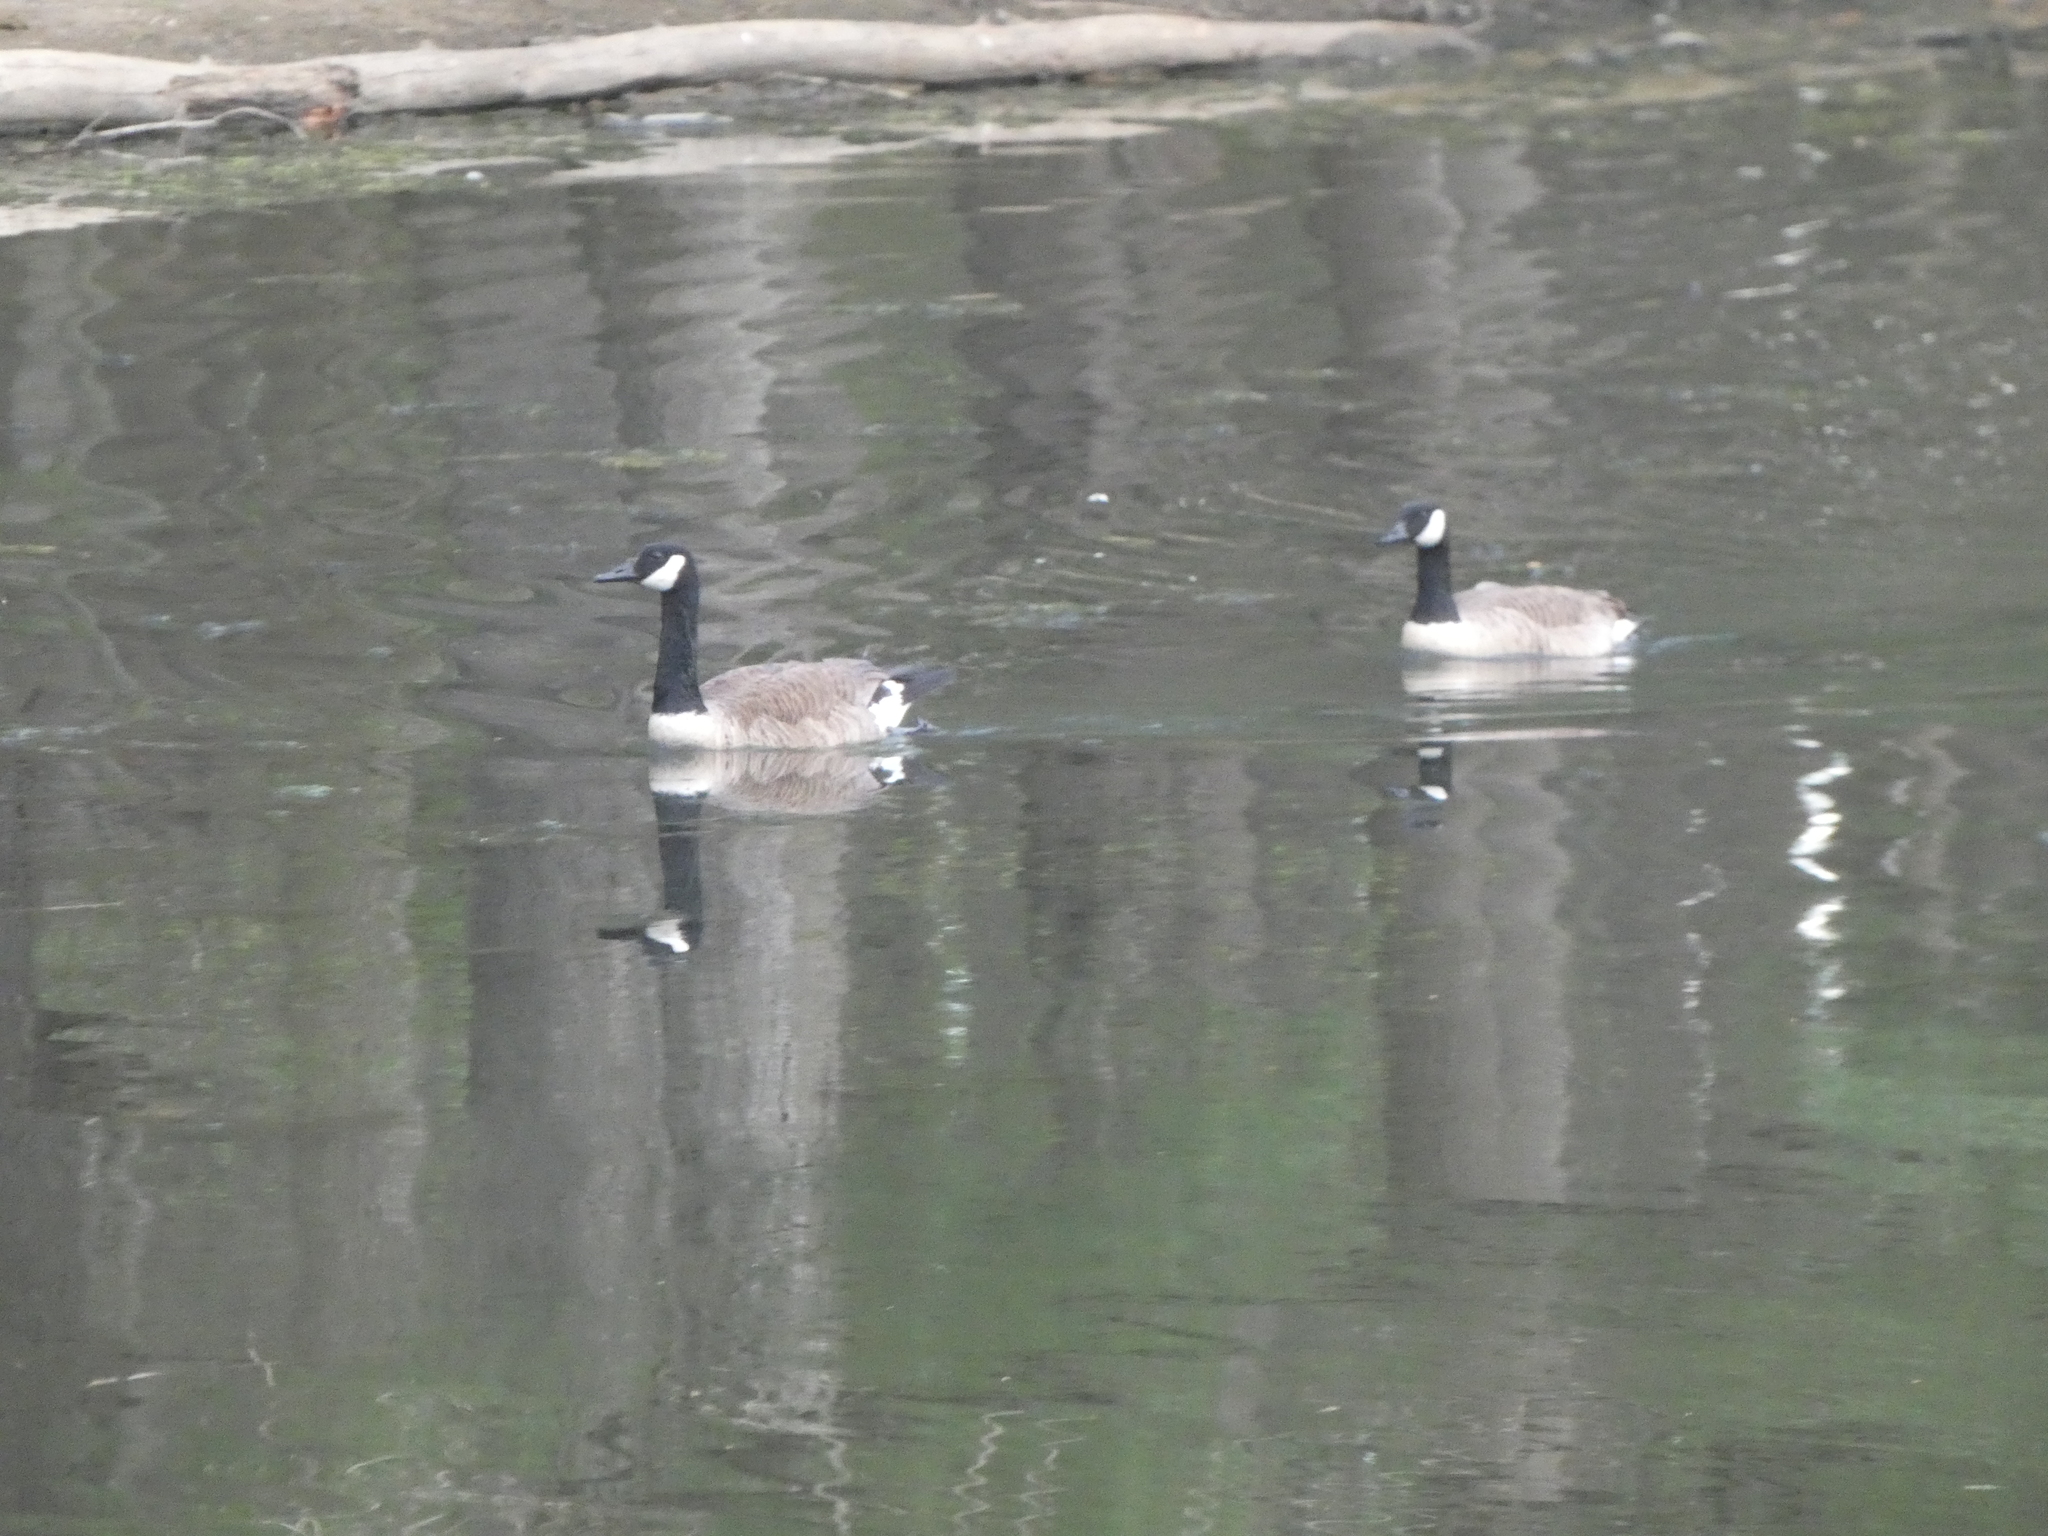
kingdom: Animalia
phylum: Chordata
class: Aves
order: Anseriformes
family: Anatidae
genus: Branta
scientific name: Branta canadensis
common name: Canada goose
